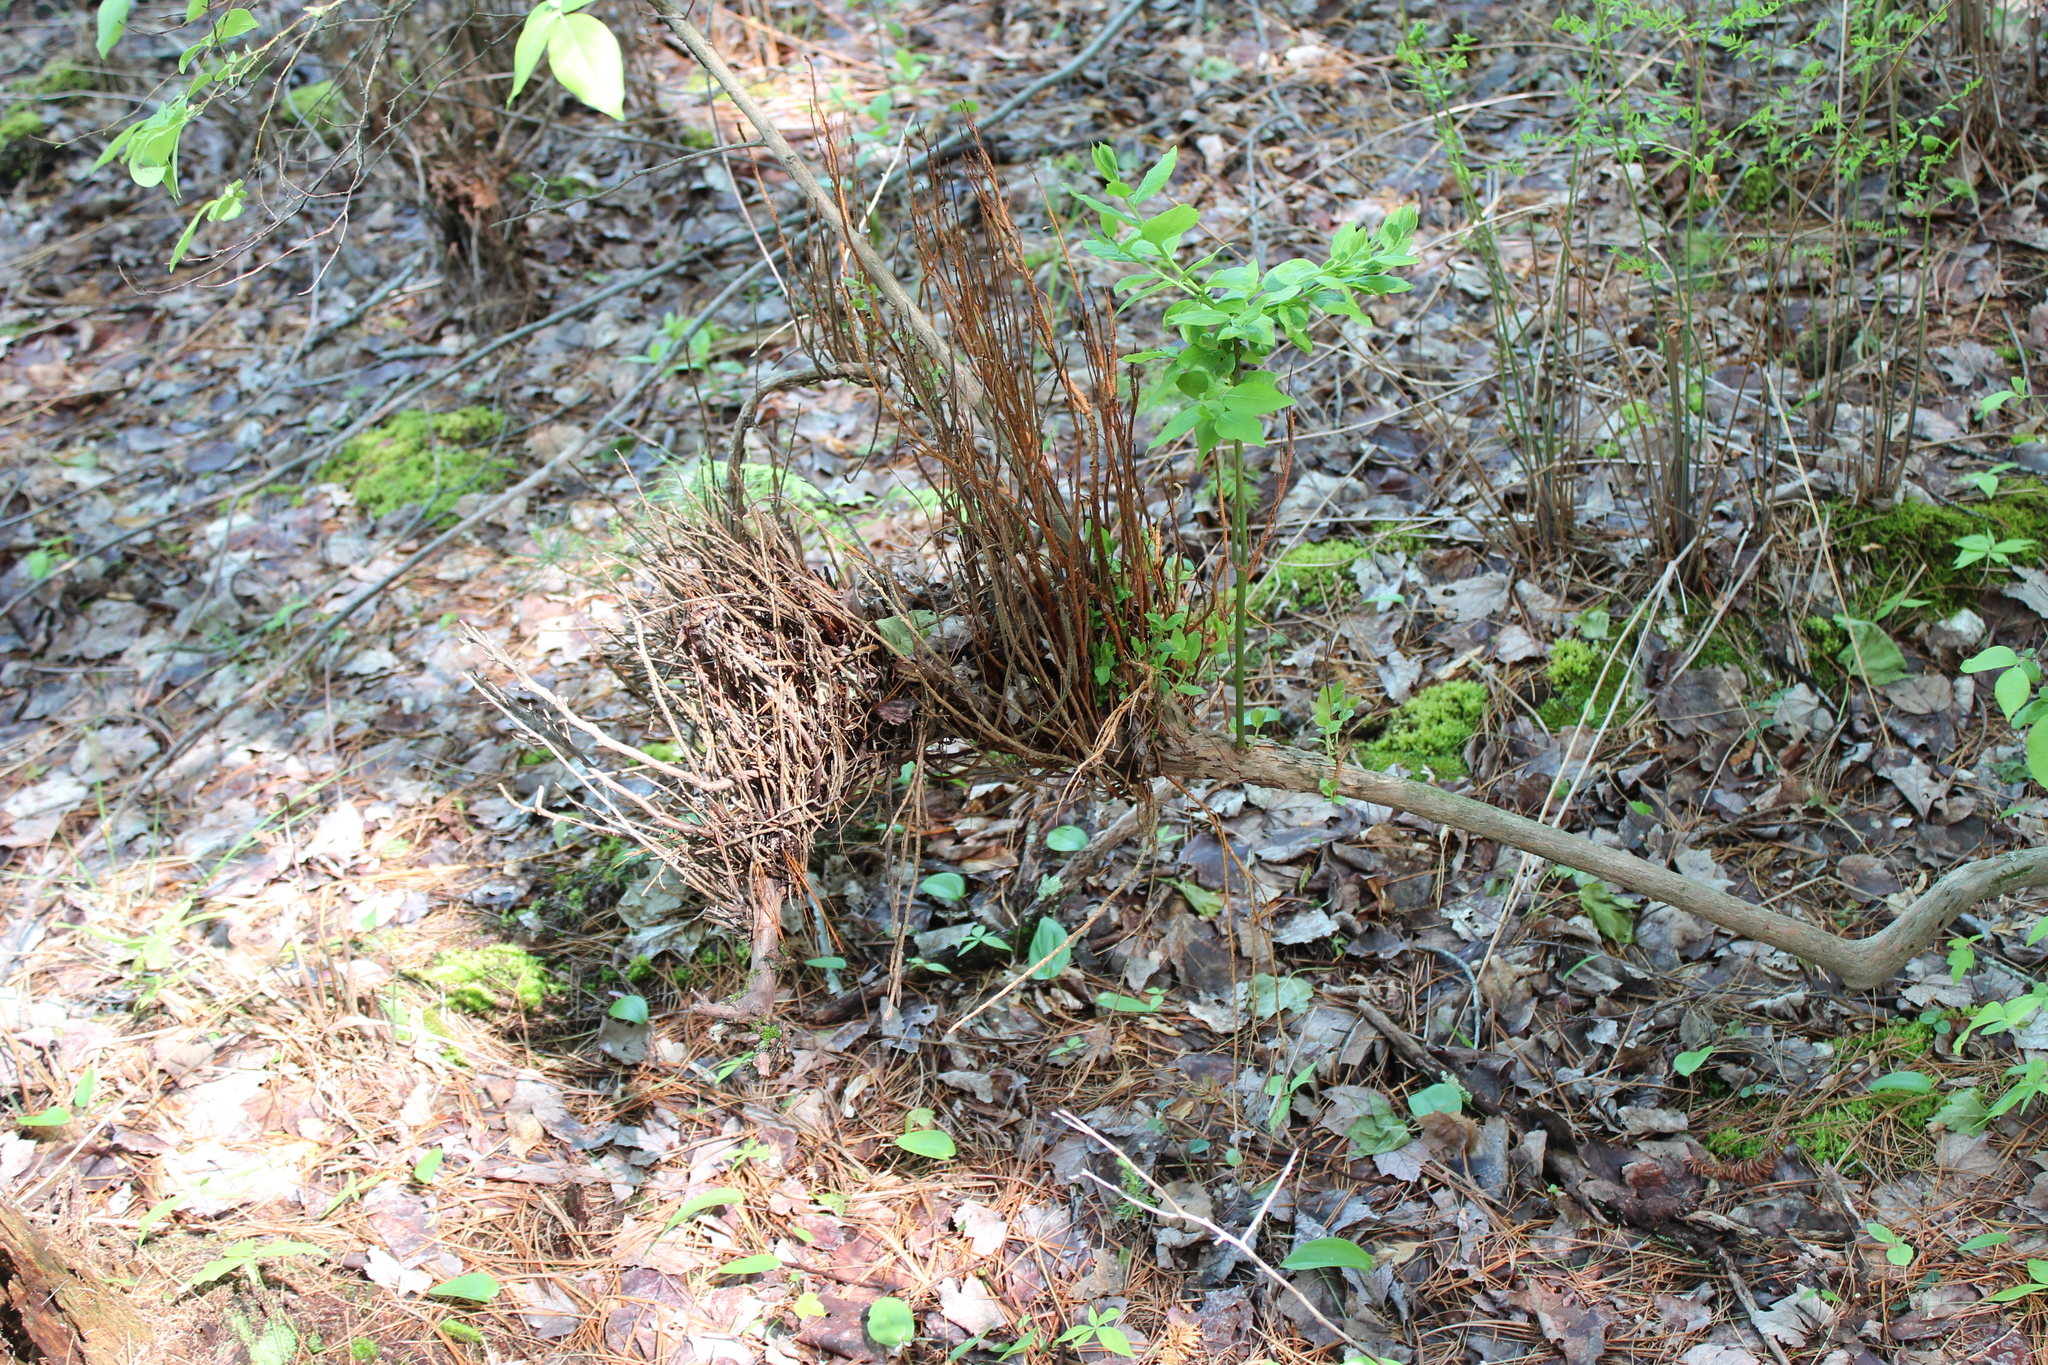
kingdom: Fungi
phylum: Basidiomycota
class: Pucciniomycetes
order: Pucciniales
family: Pucciniastraceae
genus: Calyptospora
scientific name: Calyptospora columnaris
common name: Huckleberry broom rust fungus
